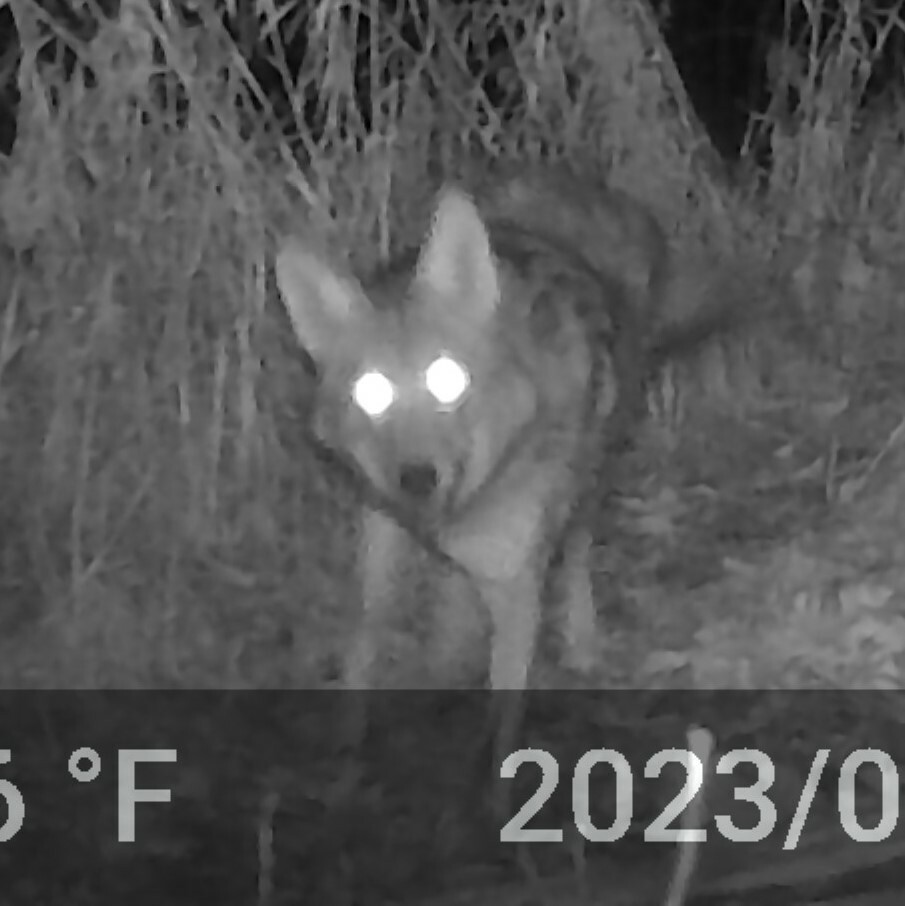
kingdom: Animalia
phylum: Chordata
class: Mammalia
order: Carnivora
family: Canidae
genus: Canis
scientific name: Canis latrans
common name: Coyote
